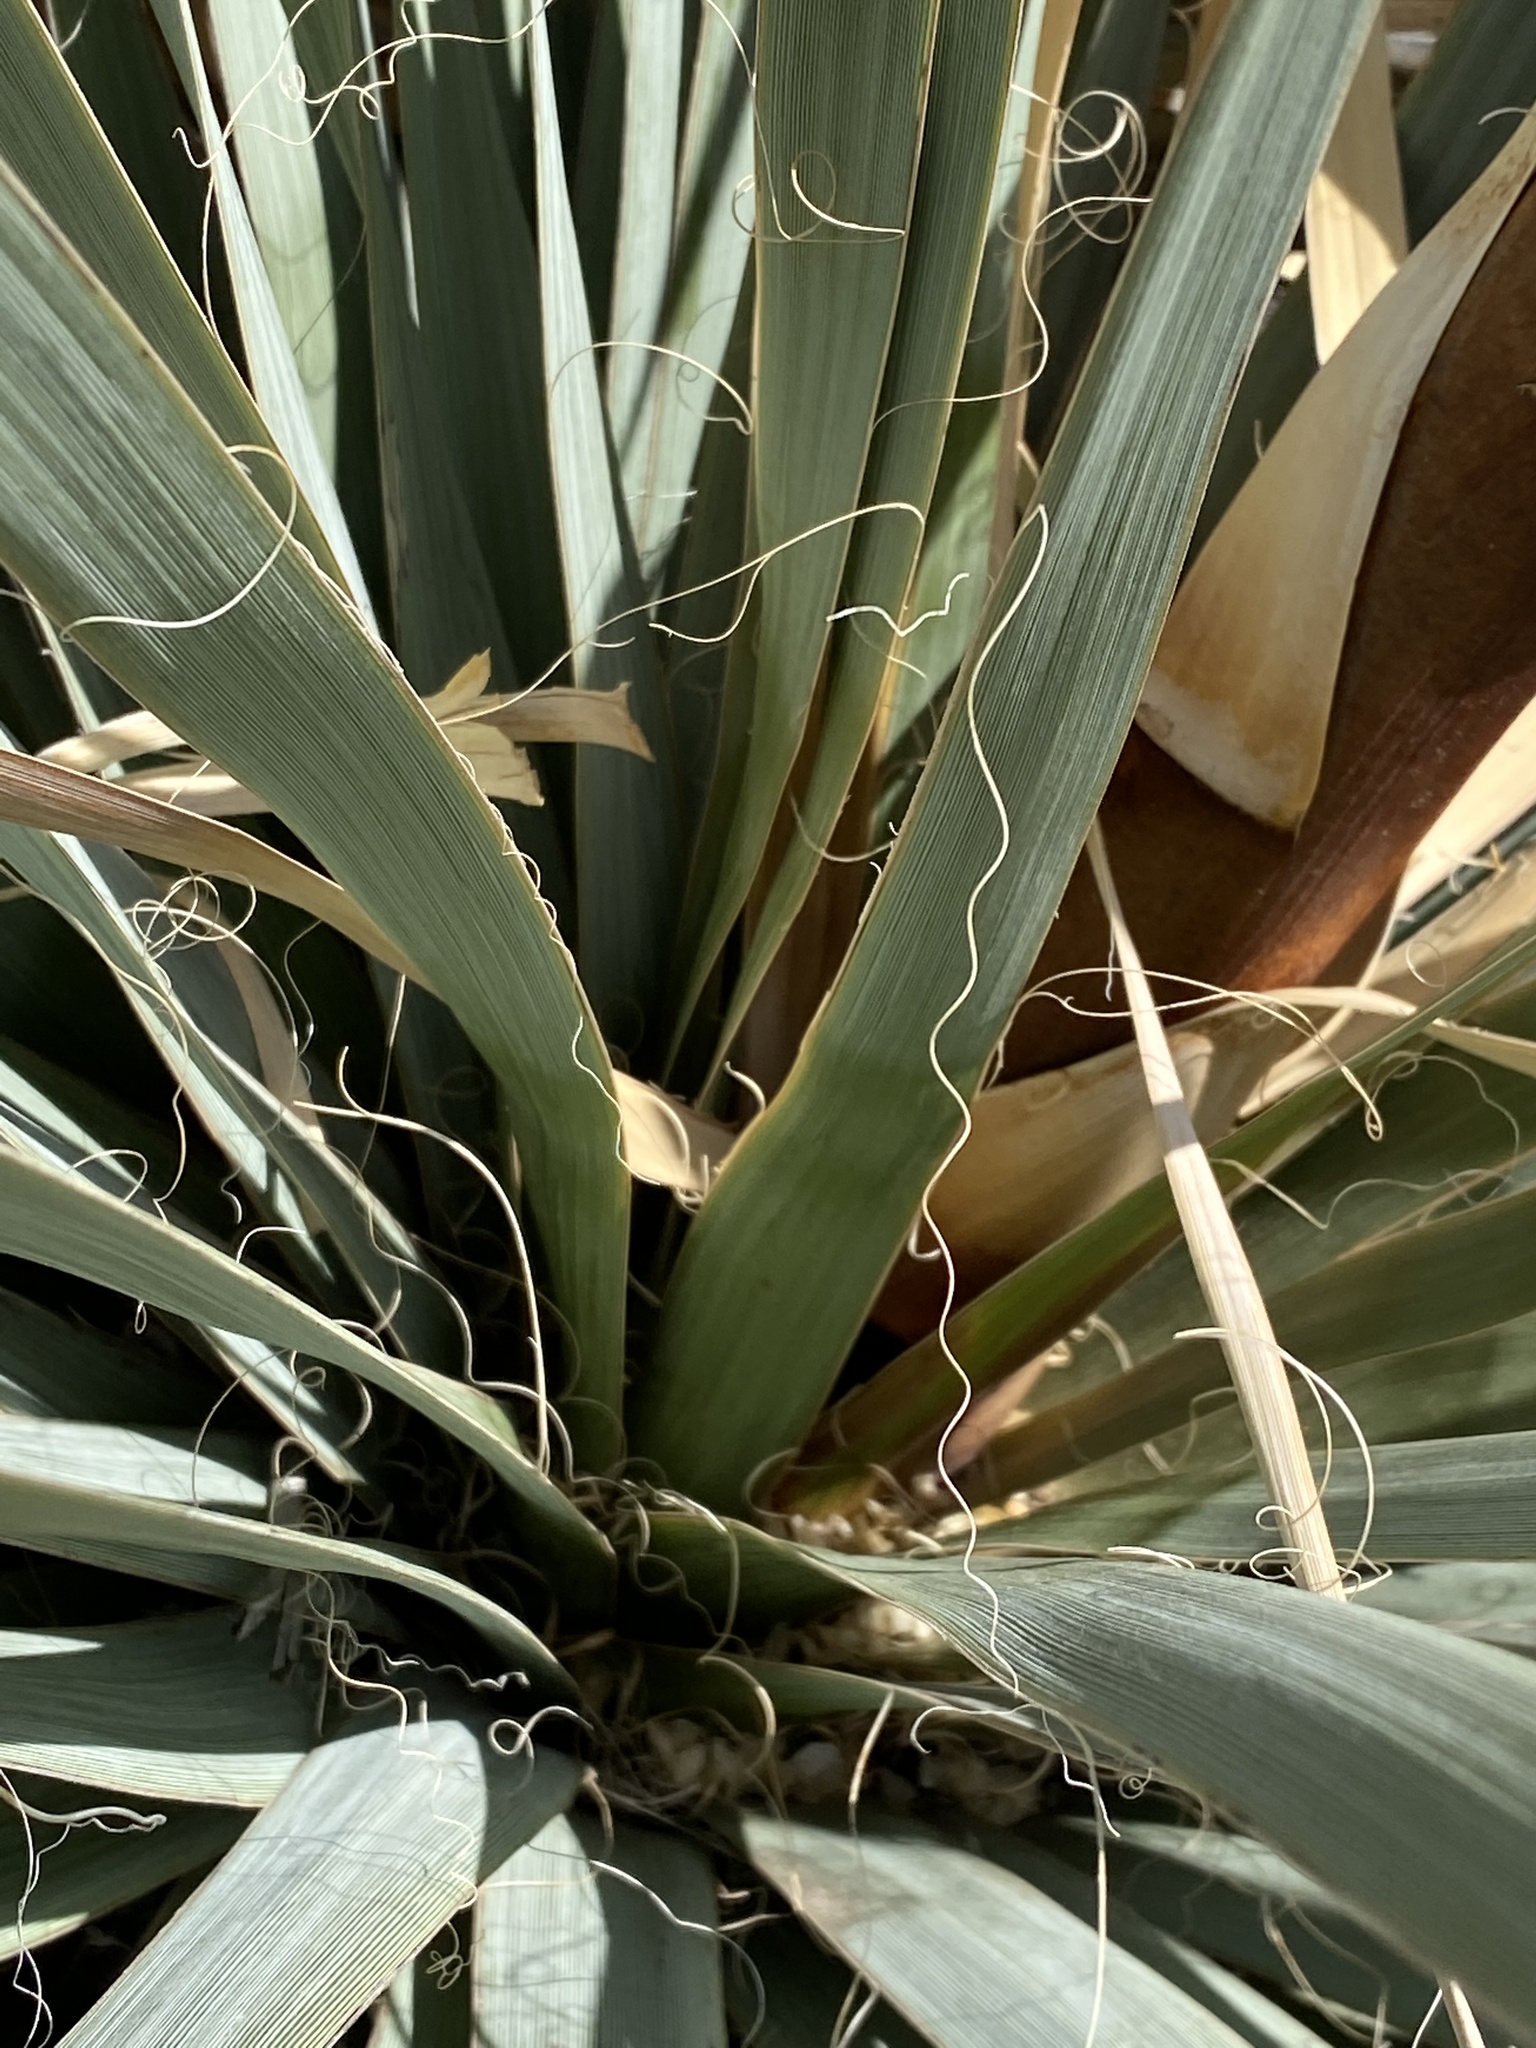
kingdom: Plantae
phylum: Tracheophyta
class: Liliopsida
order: Asparagales
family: Asparagaceae
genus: Nolina
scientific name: Nolina bigelovii
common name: Bigelow bear-grass
